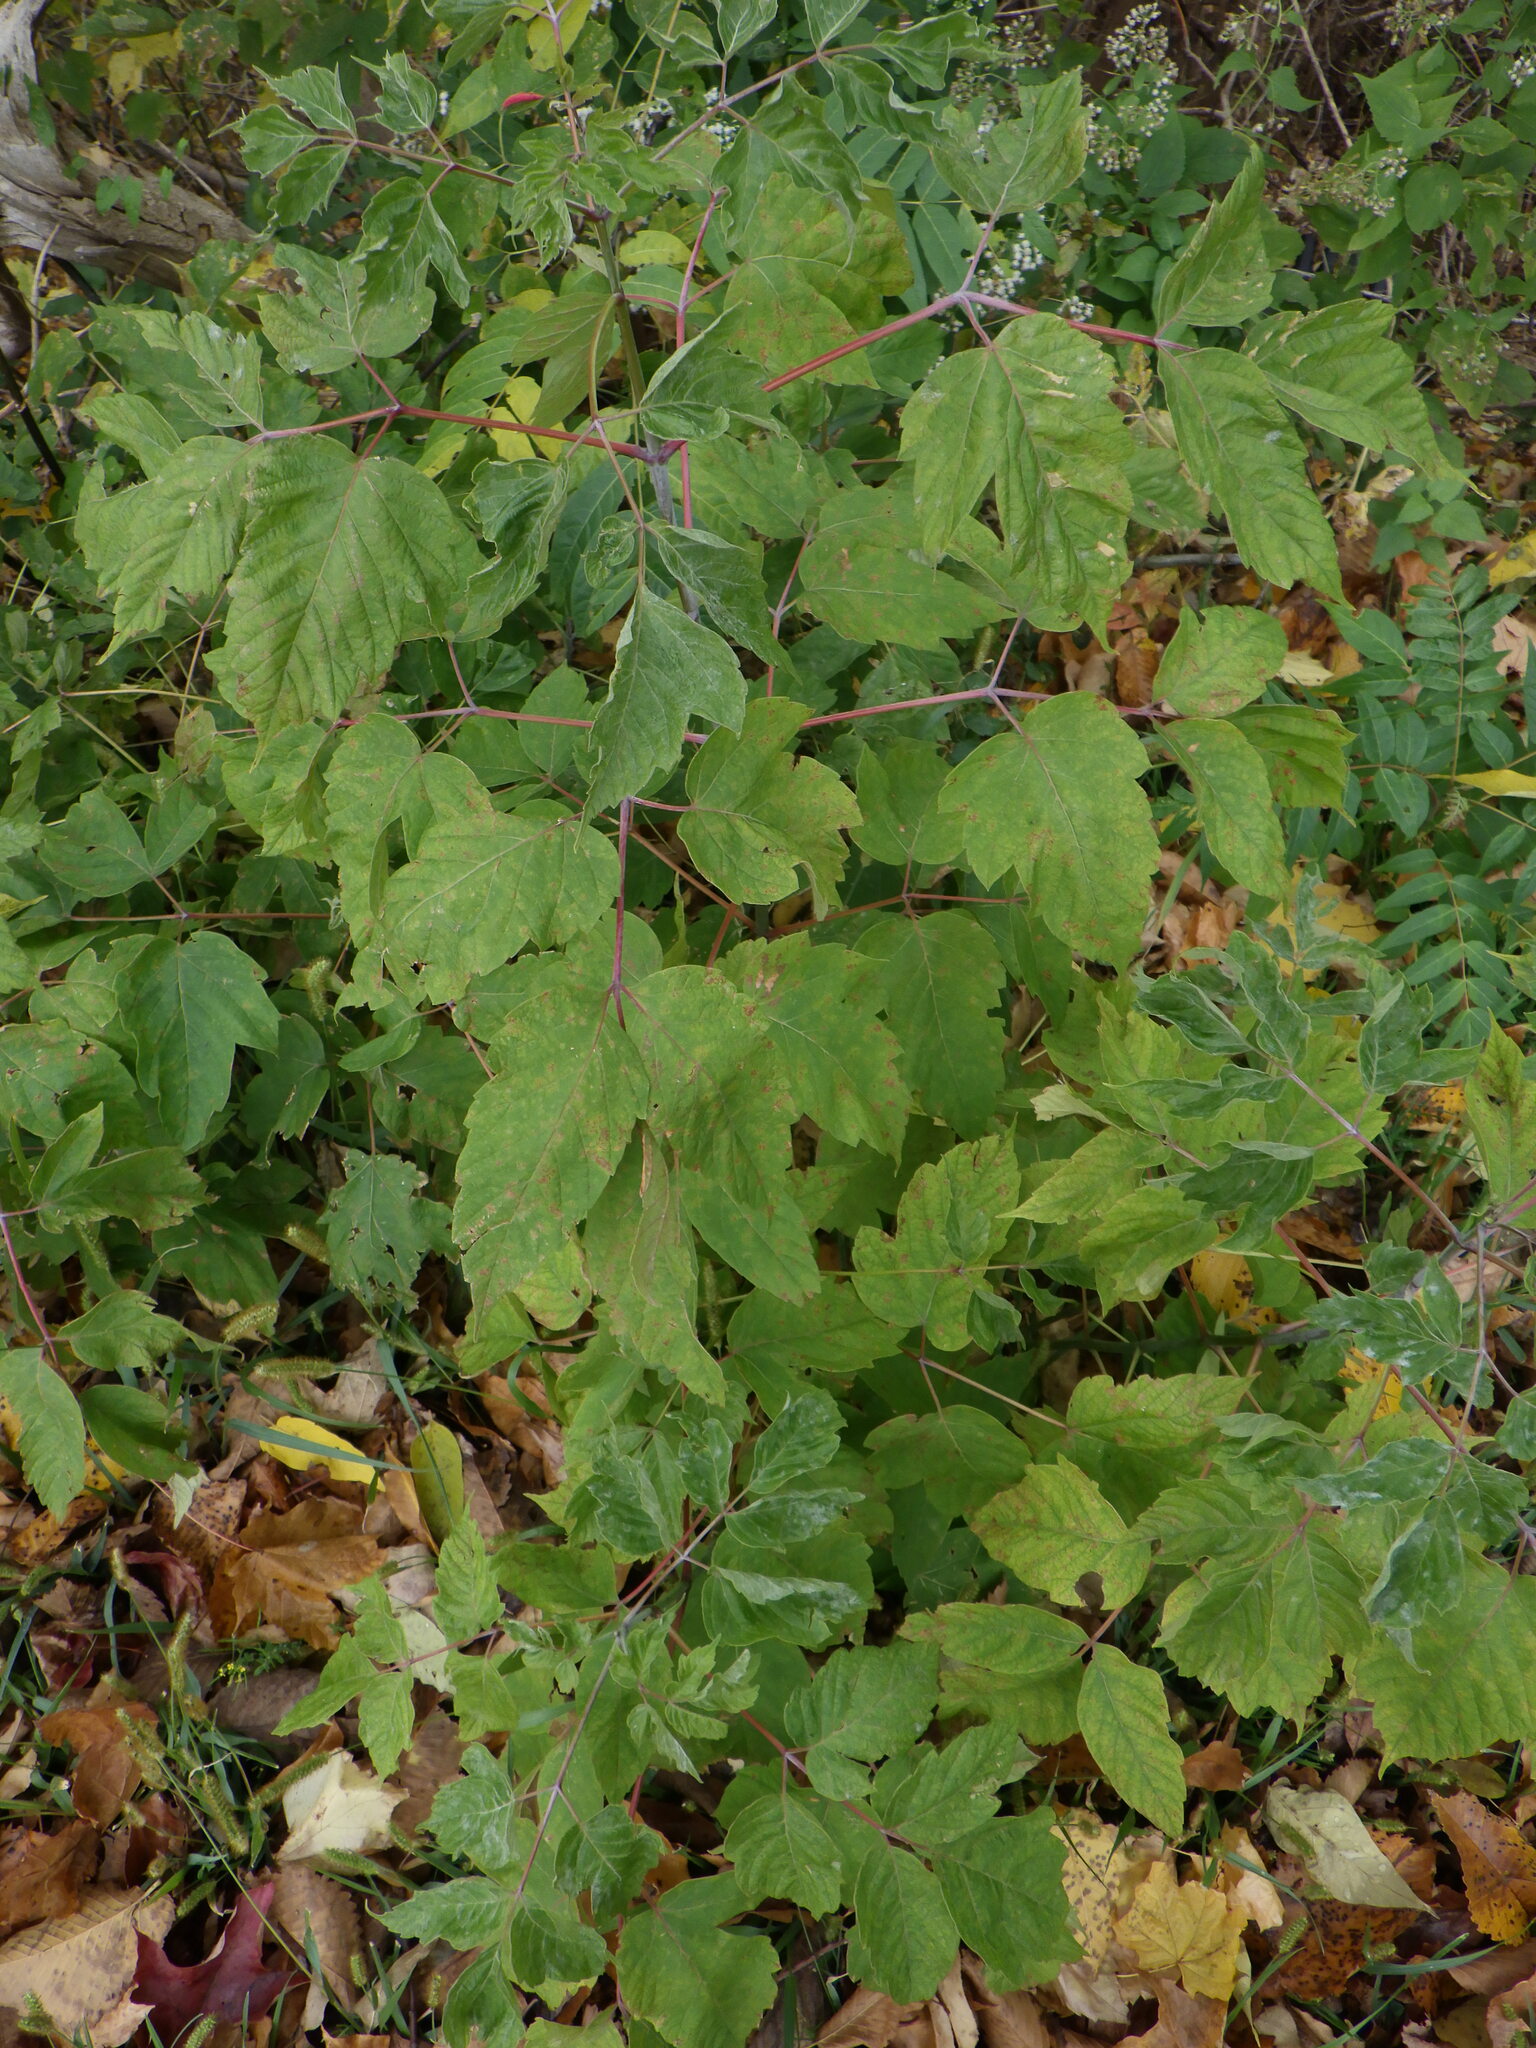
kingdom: Plantae
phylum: Tracheophyta
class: Magnoliopsida
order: Sapindales
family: Sapindaceae
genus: Acer
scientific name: Acer negundo
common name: Ashleaf maple
